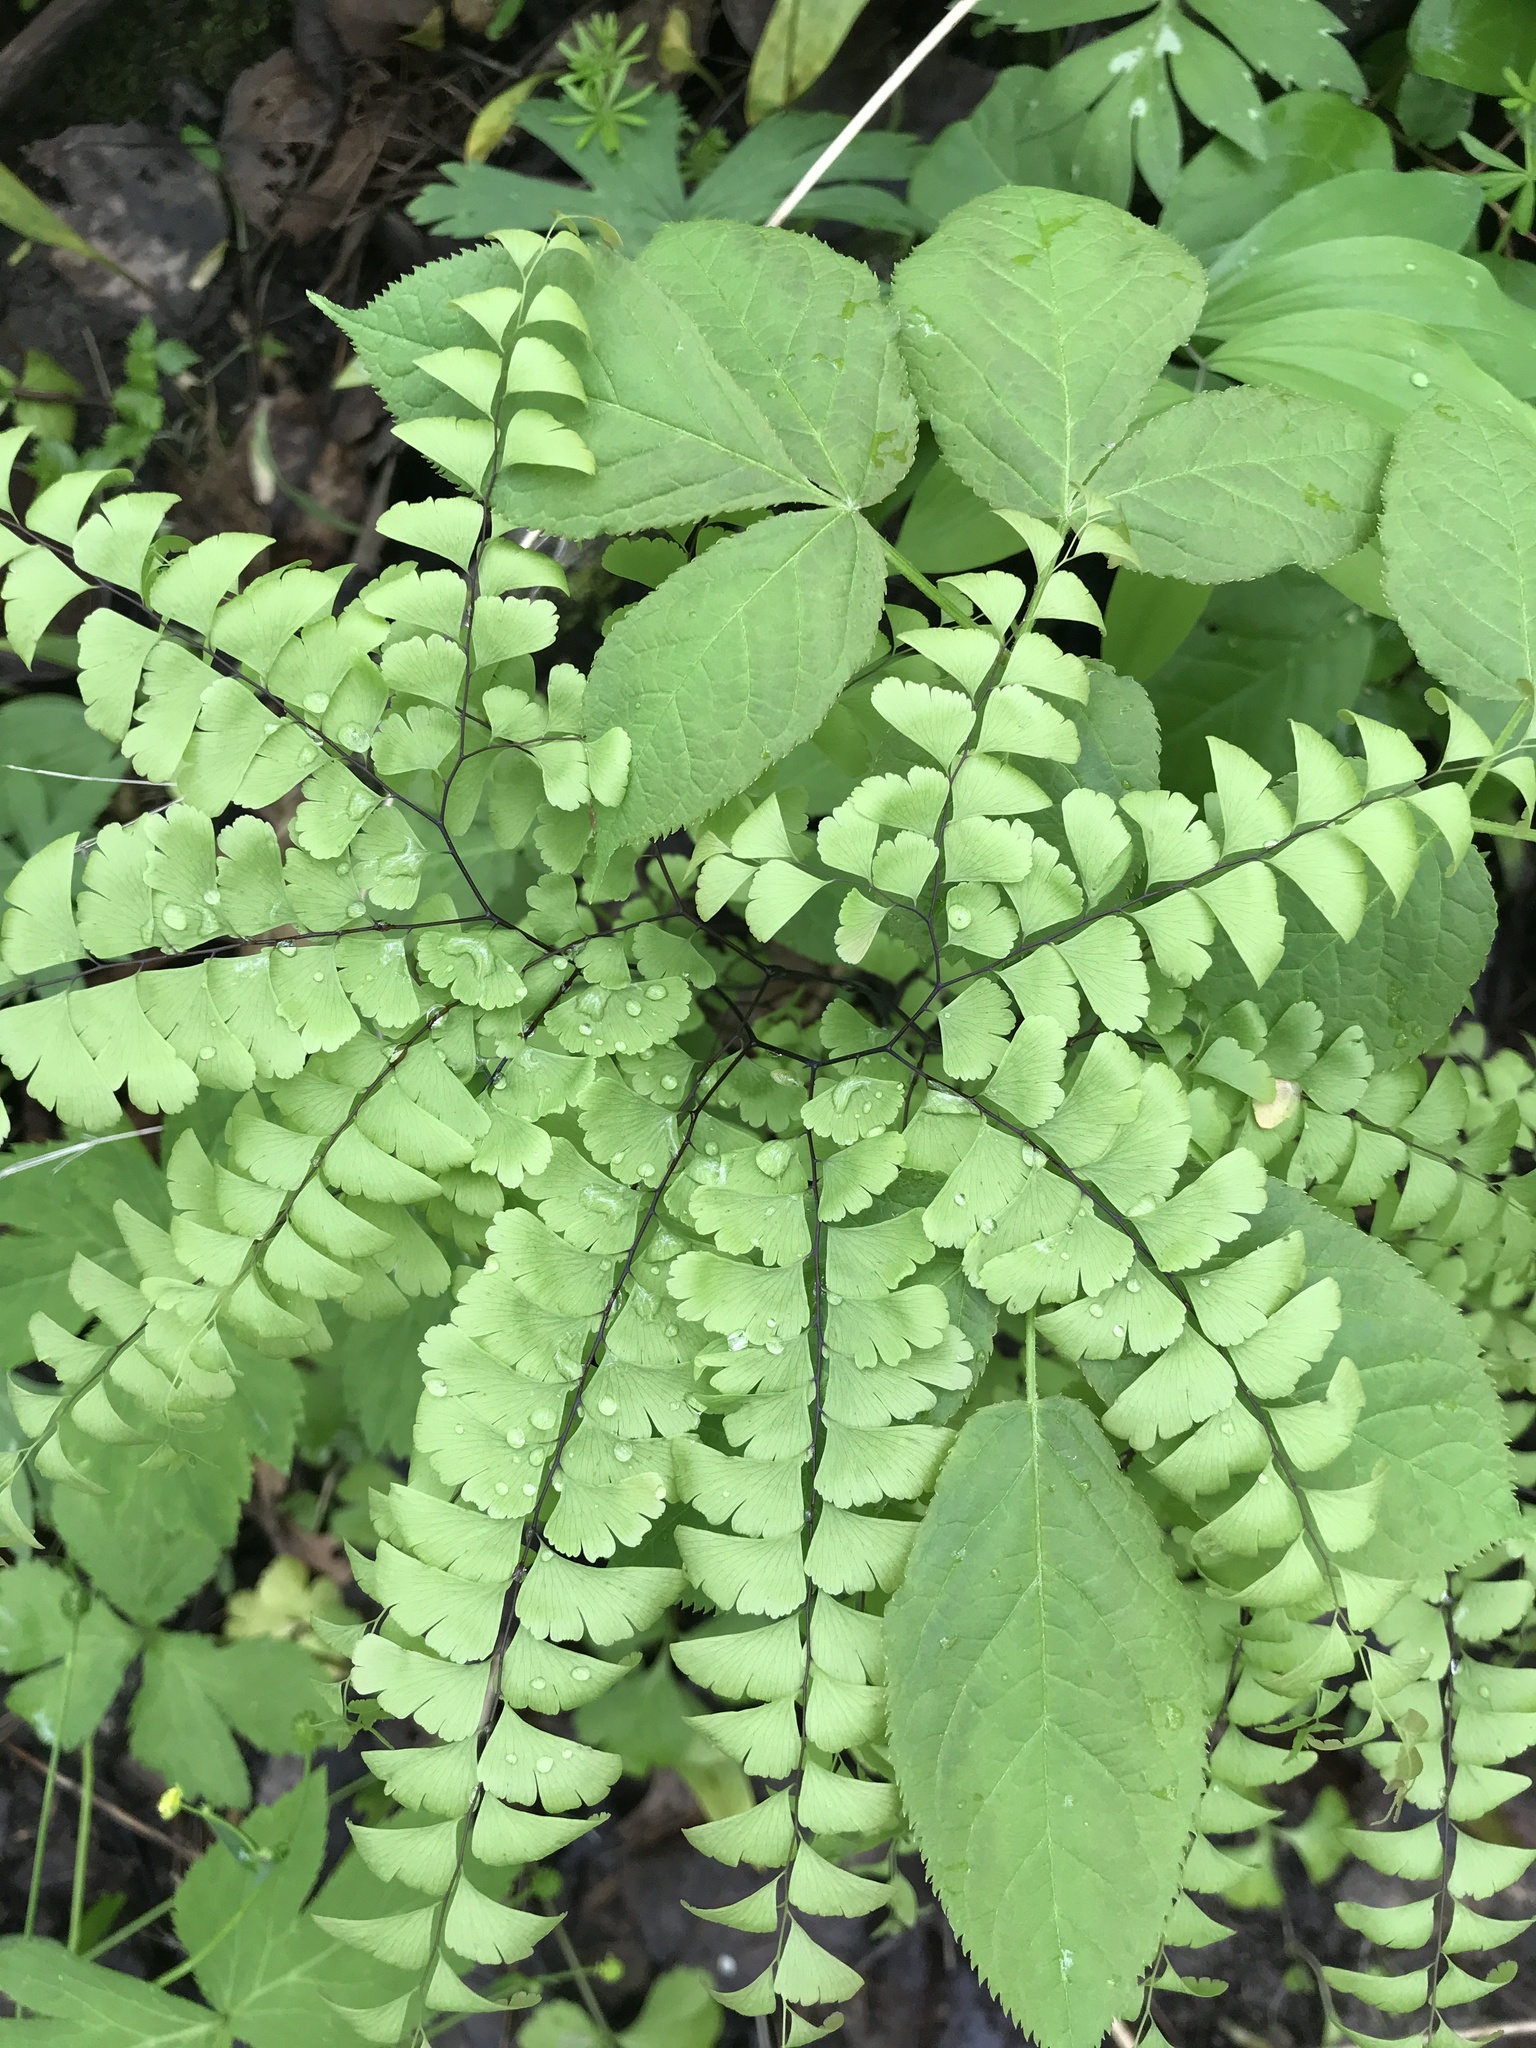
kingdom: Plantae
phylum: Tracheophyta
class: Polypodiopsida
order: Polypodiales
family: Pteridaceae
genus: Adiantum
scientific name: Adiantum pedatum
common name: Five-finger fern
